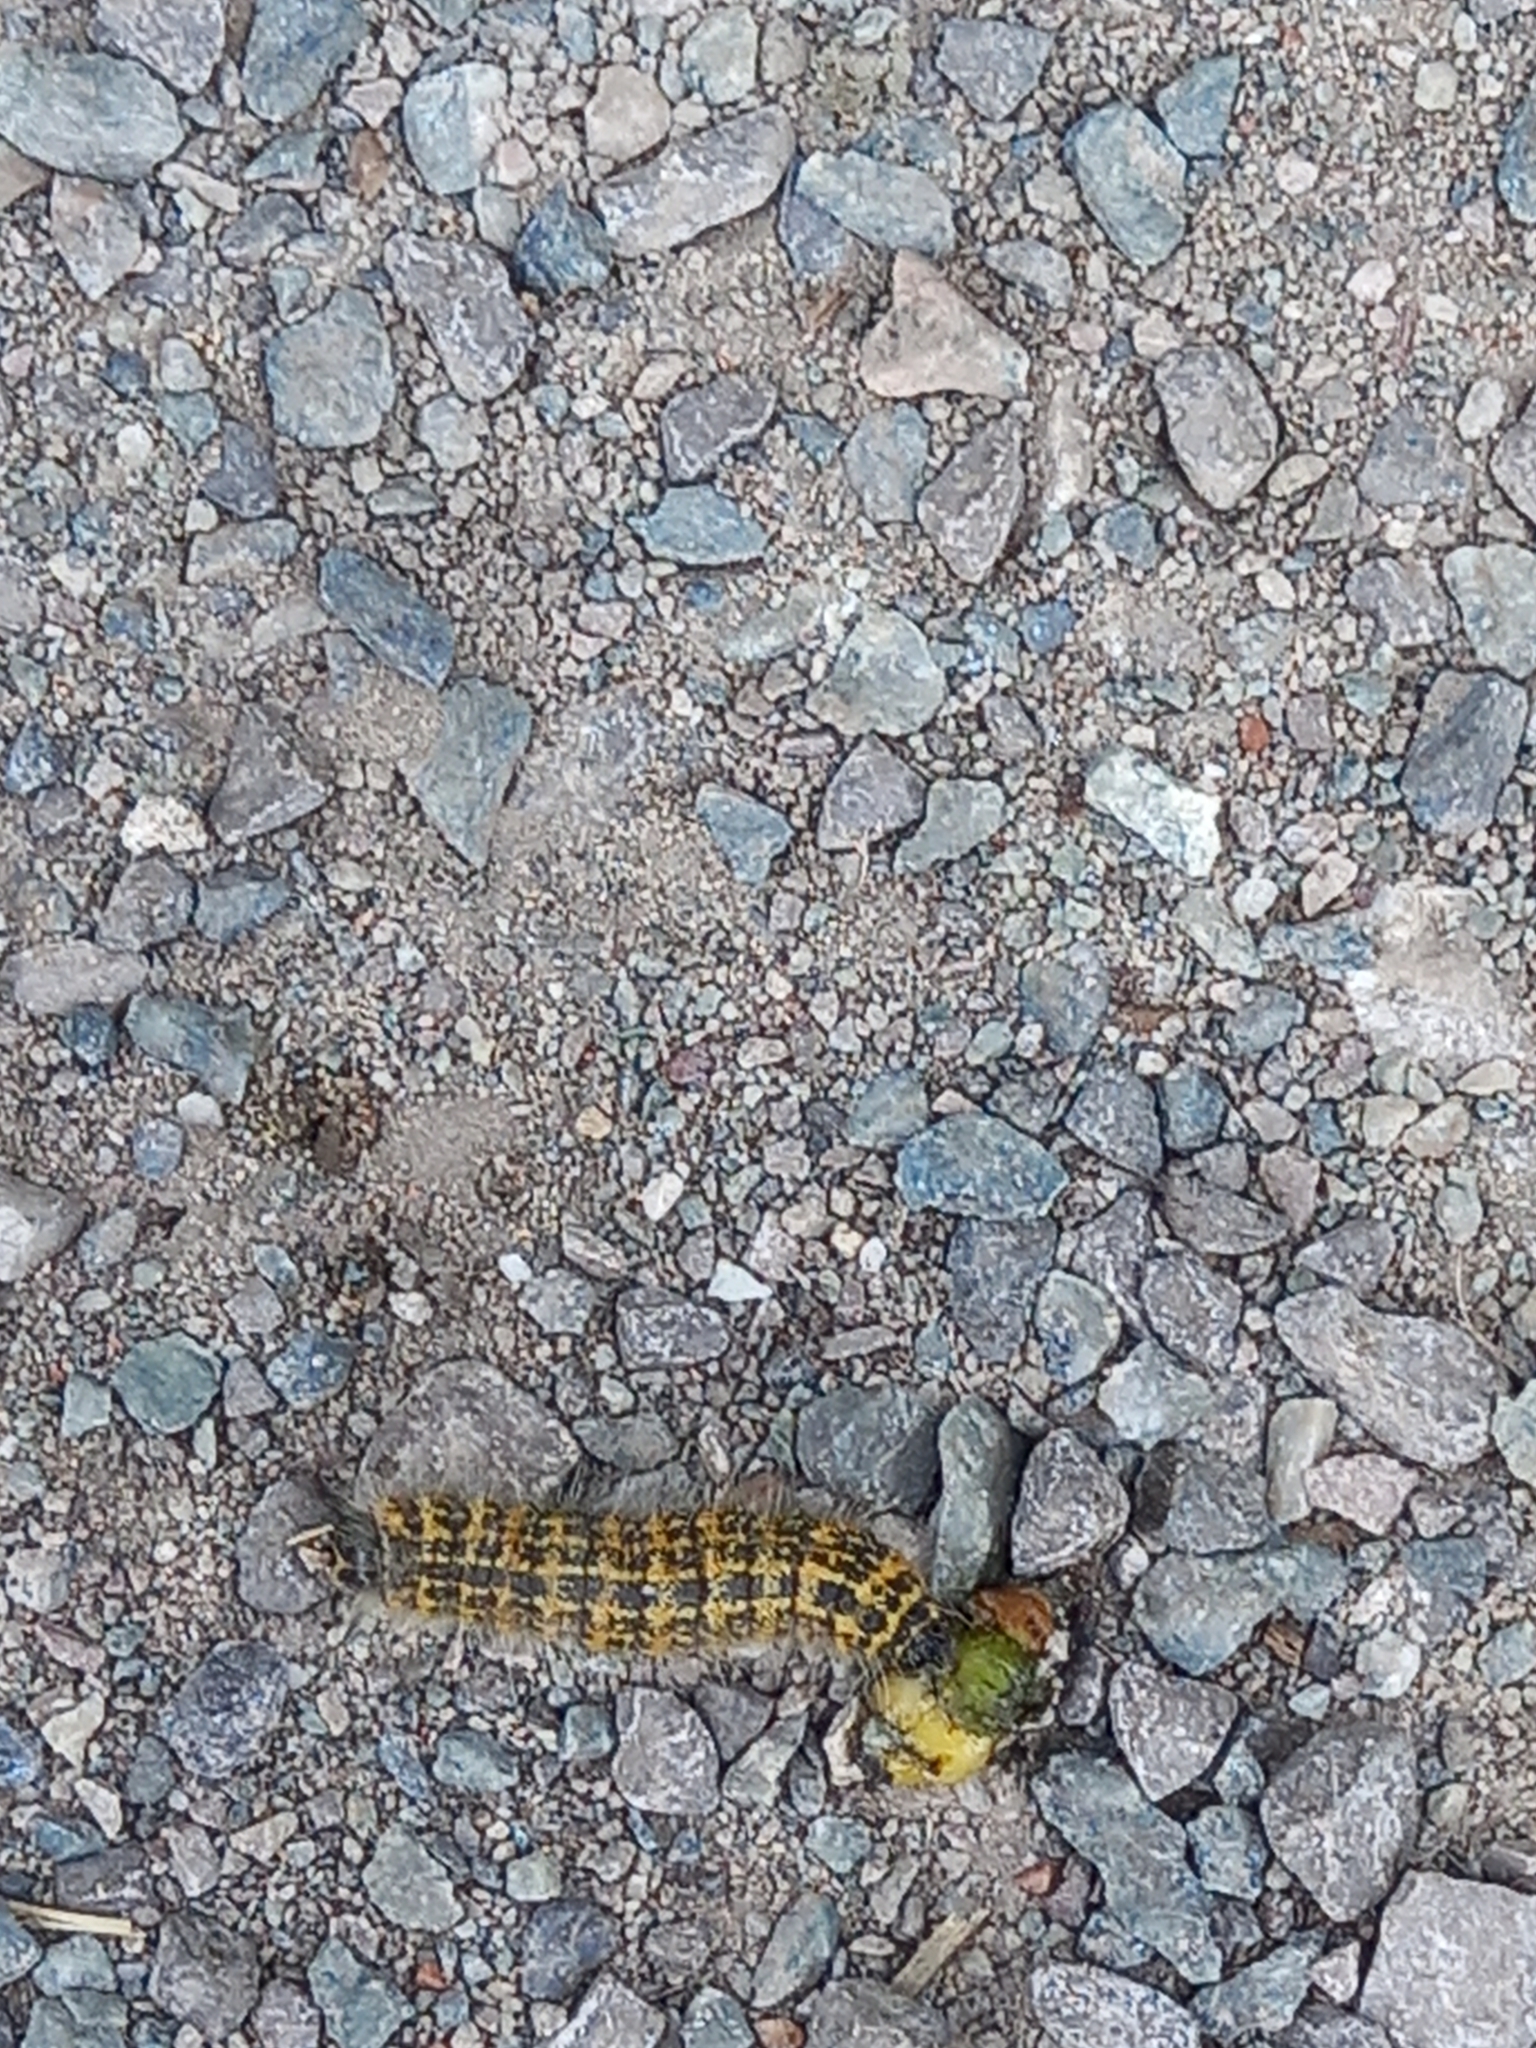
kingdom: Animalia
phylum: Arthropoda
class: Insecta
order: Lepidoptera
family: Notodontidae
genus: Phalera
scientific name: Phalera bucephala
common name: Buff-tip
